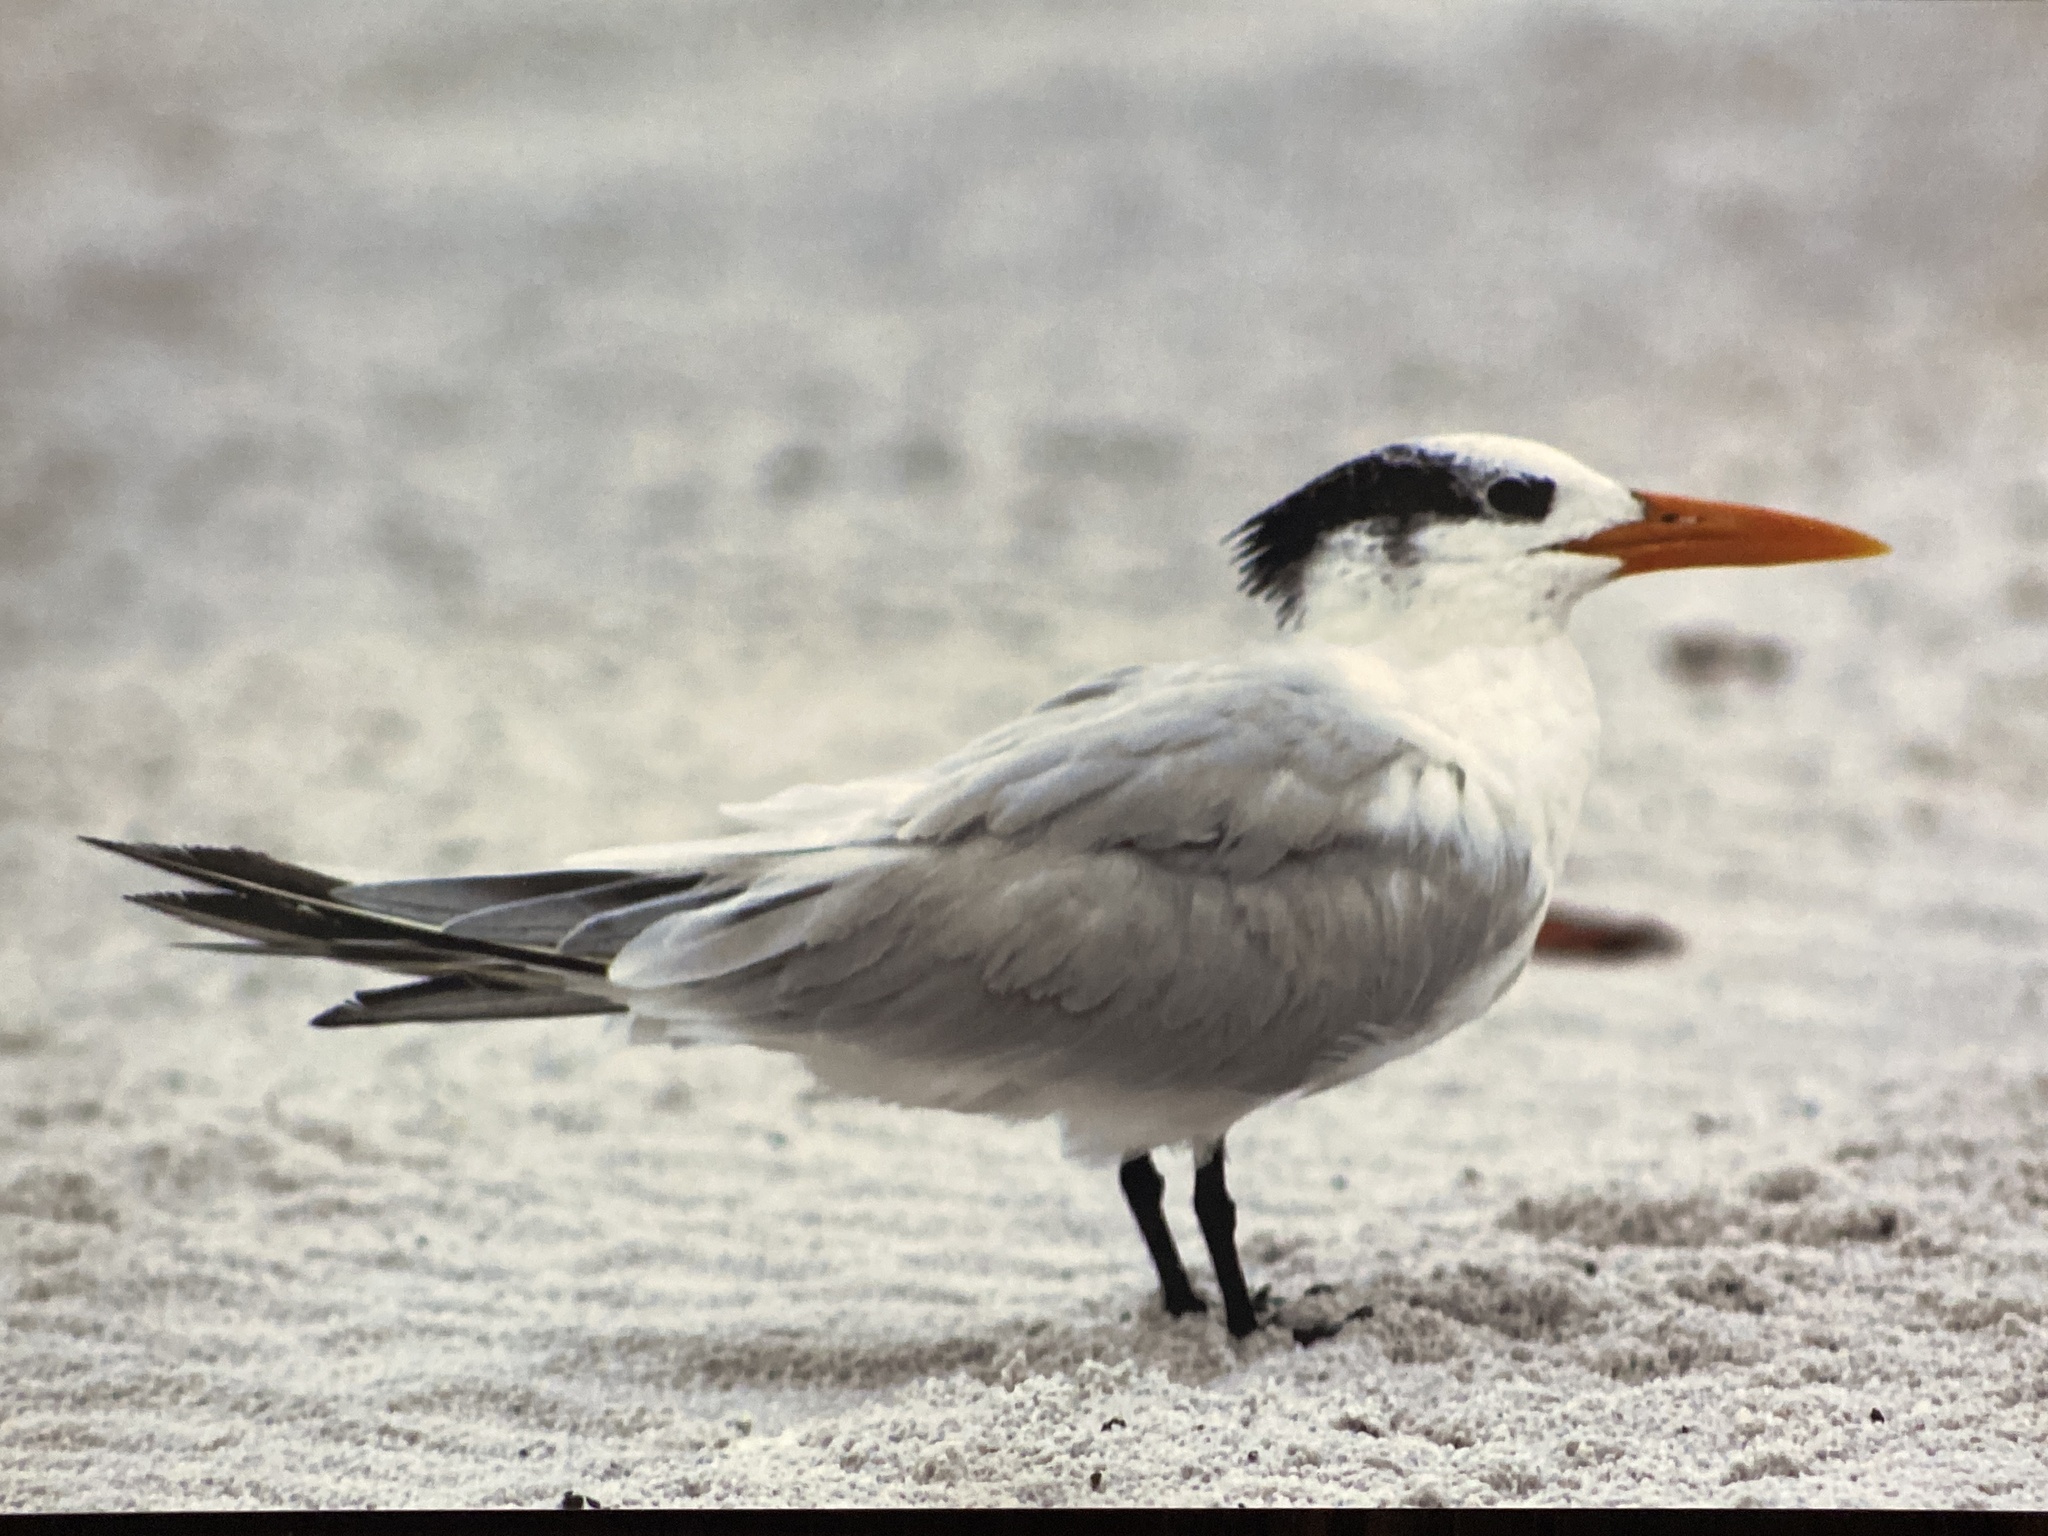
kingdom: Animalia
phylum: Chordata
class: Aves
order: Charadriiformes
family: Laridae
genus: Thalasseus
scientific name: Thalasseus maximus
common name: Royal tern
